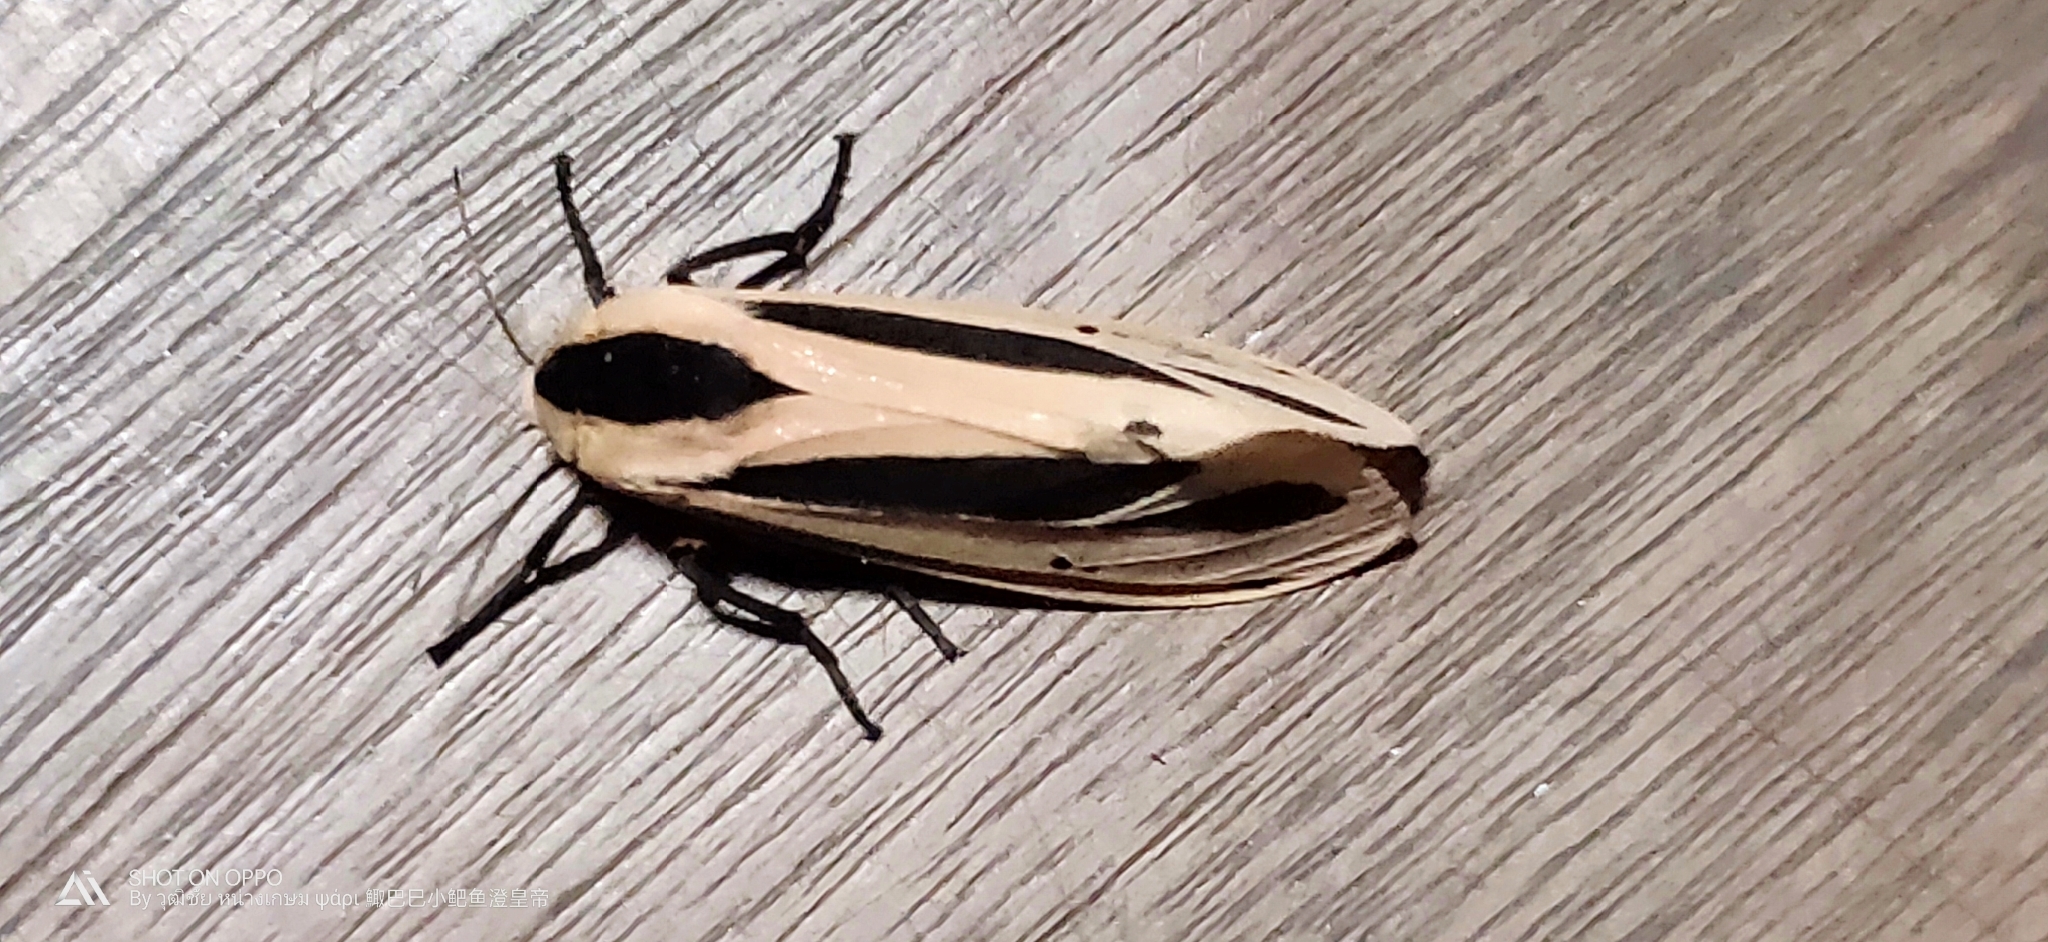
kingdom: Animalia
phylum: Arthropoda
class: Insecta
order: Lepidoptera
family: Erebidae
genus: Creatonotos
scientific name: Creatonotos gangis
